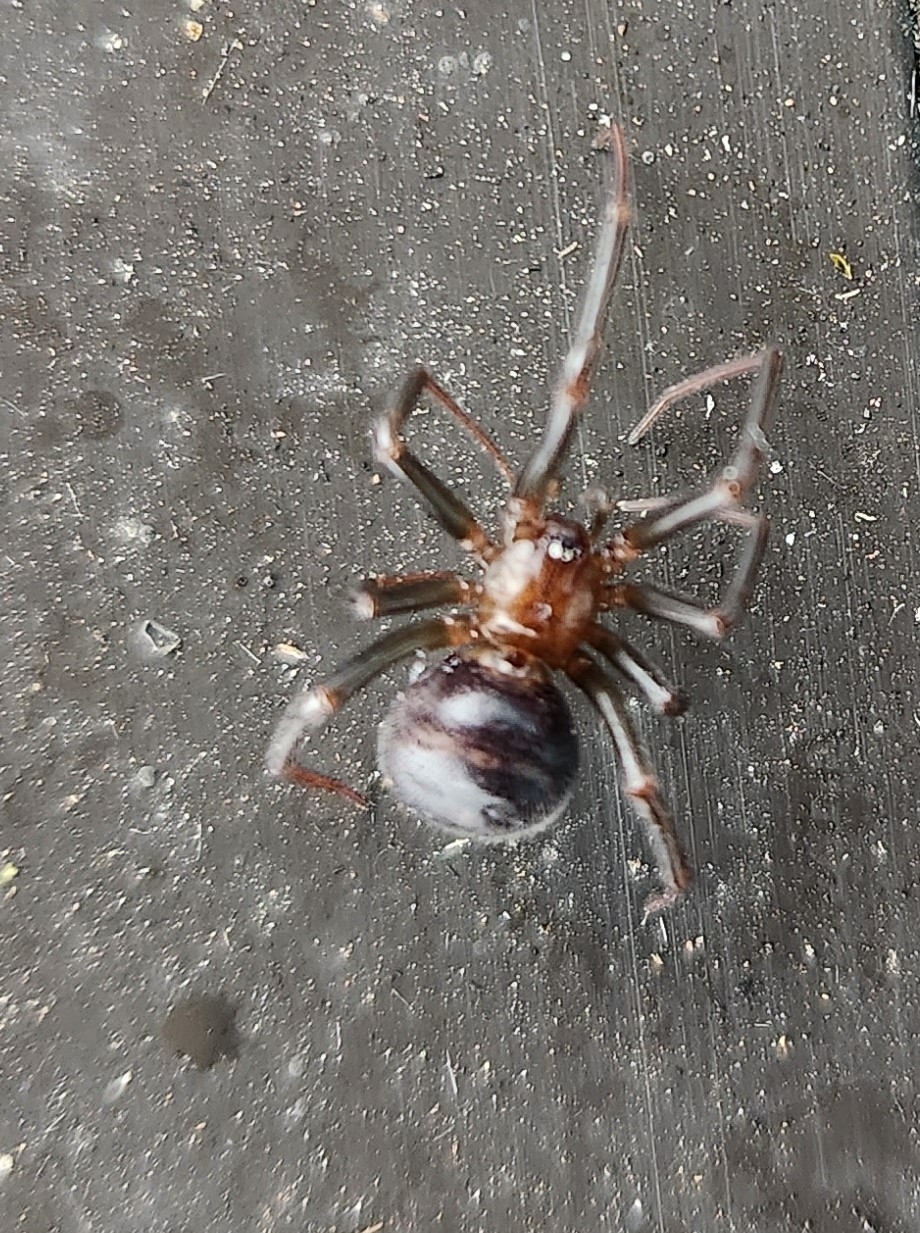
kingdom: Animalia
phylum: Arthropoda
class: Arachnida
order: Araneae
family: Theridiidae
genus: Nesticodes
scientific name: Nesticodes rufipes
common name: Cobweb spiders
